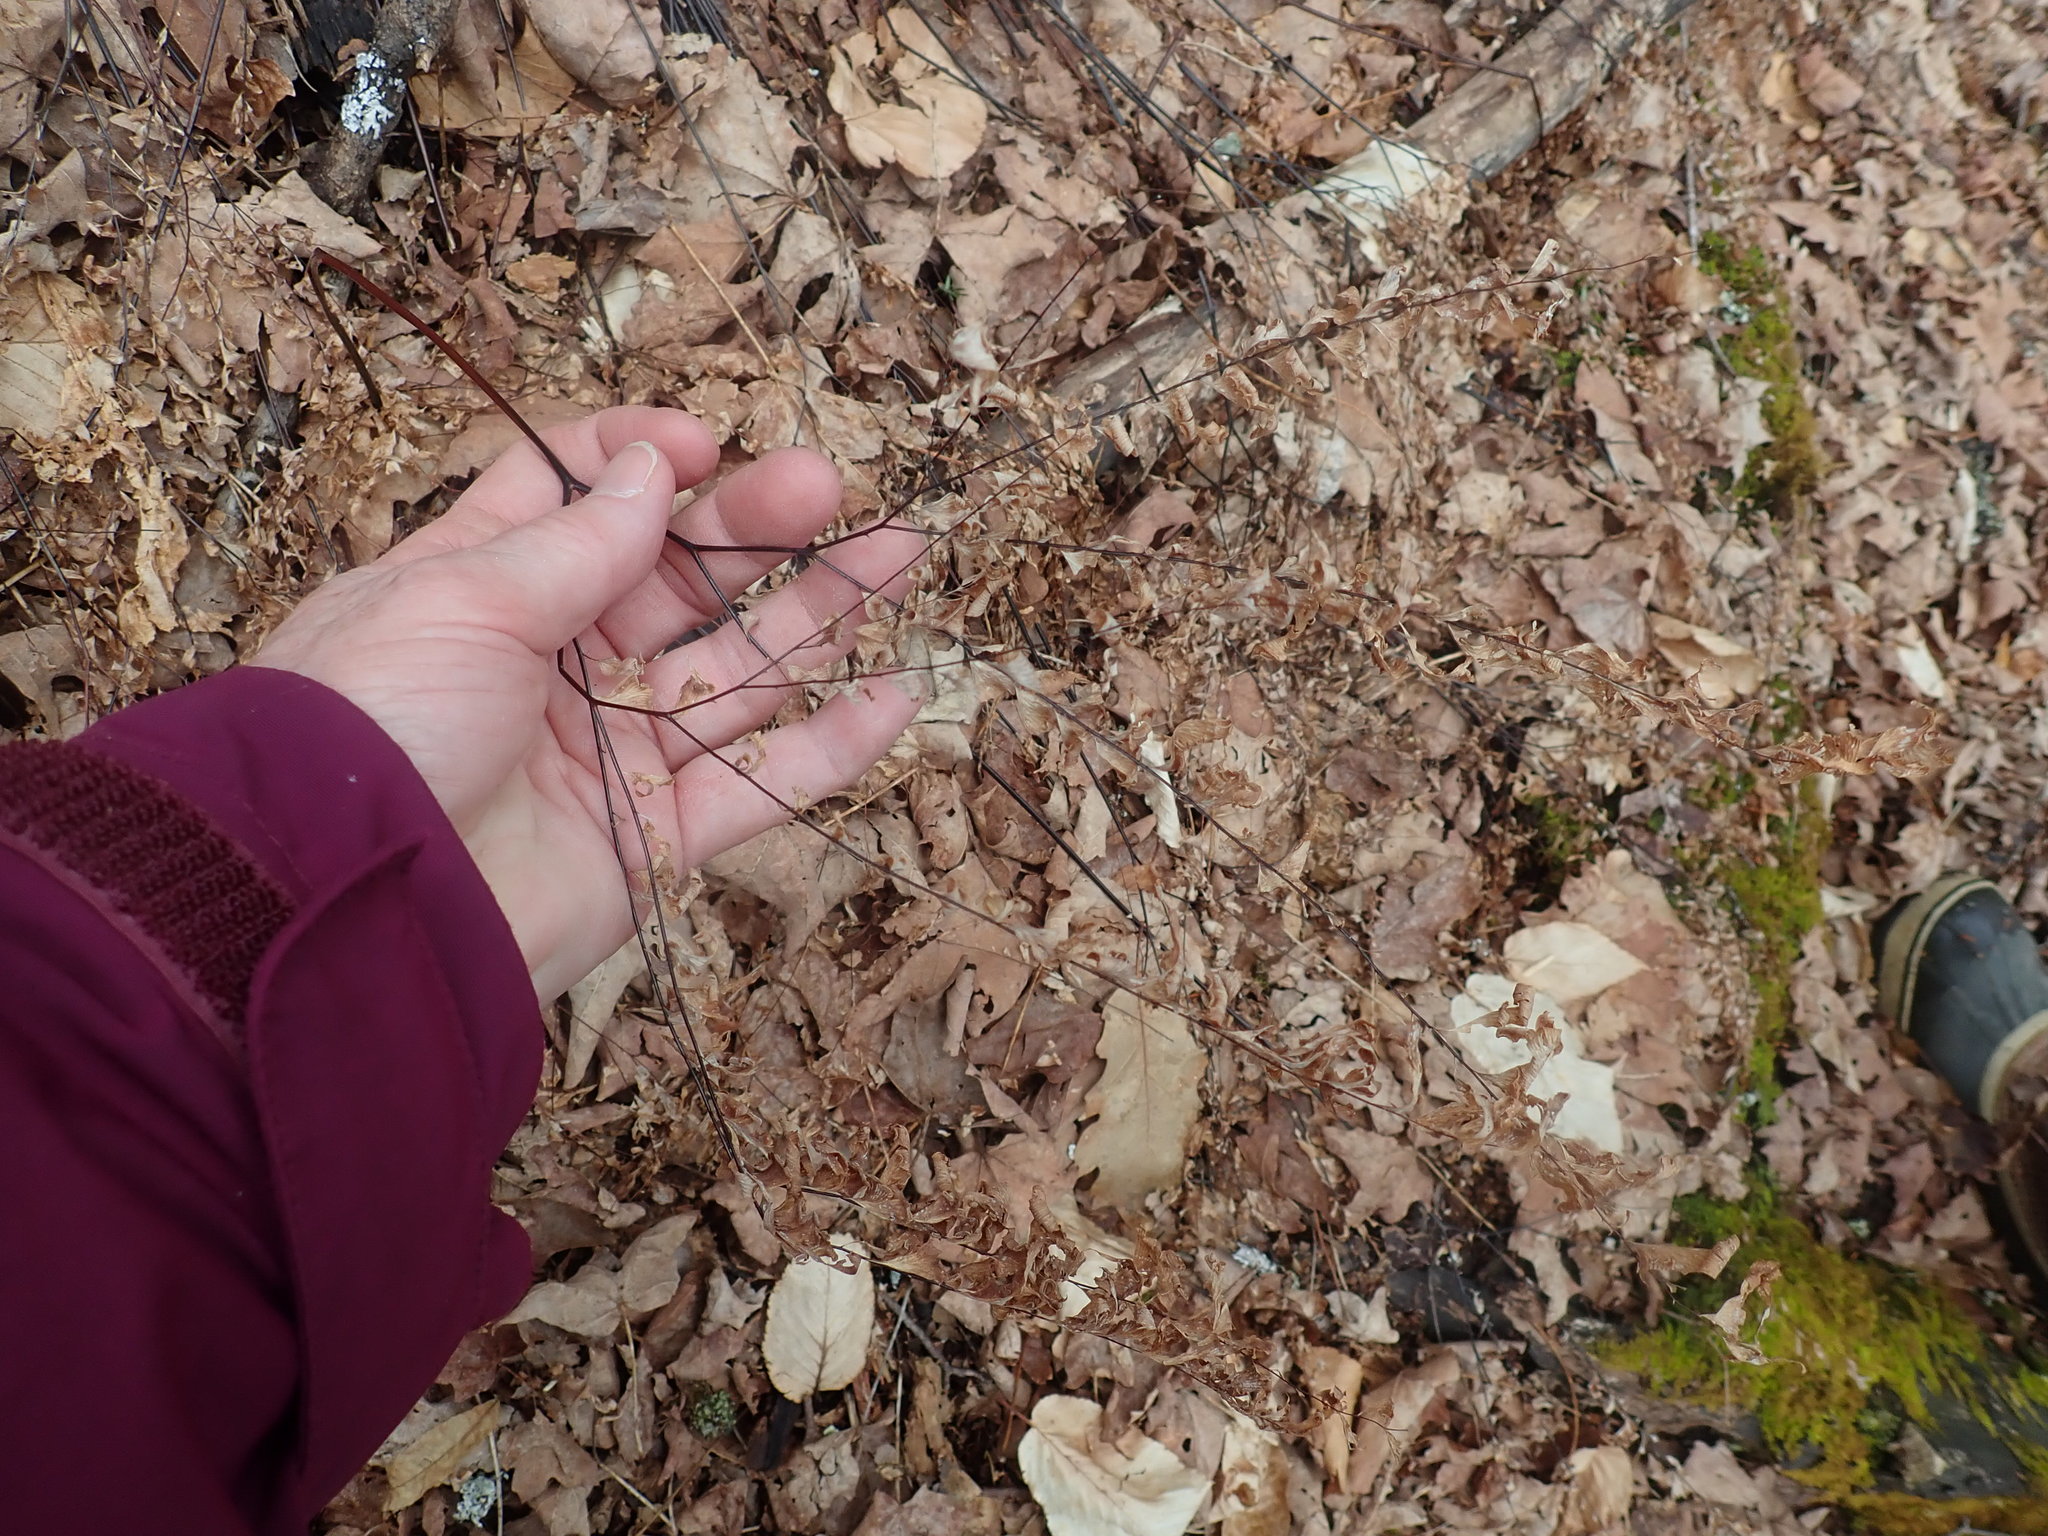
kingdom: Plantae
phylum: Tracheophyta
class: Polypodiopsida
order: Polypodiales
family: Pteridaceae
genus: Adiantum
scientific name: Adiantum pedatum
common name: Five-finger fern
